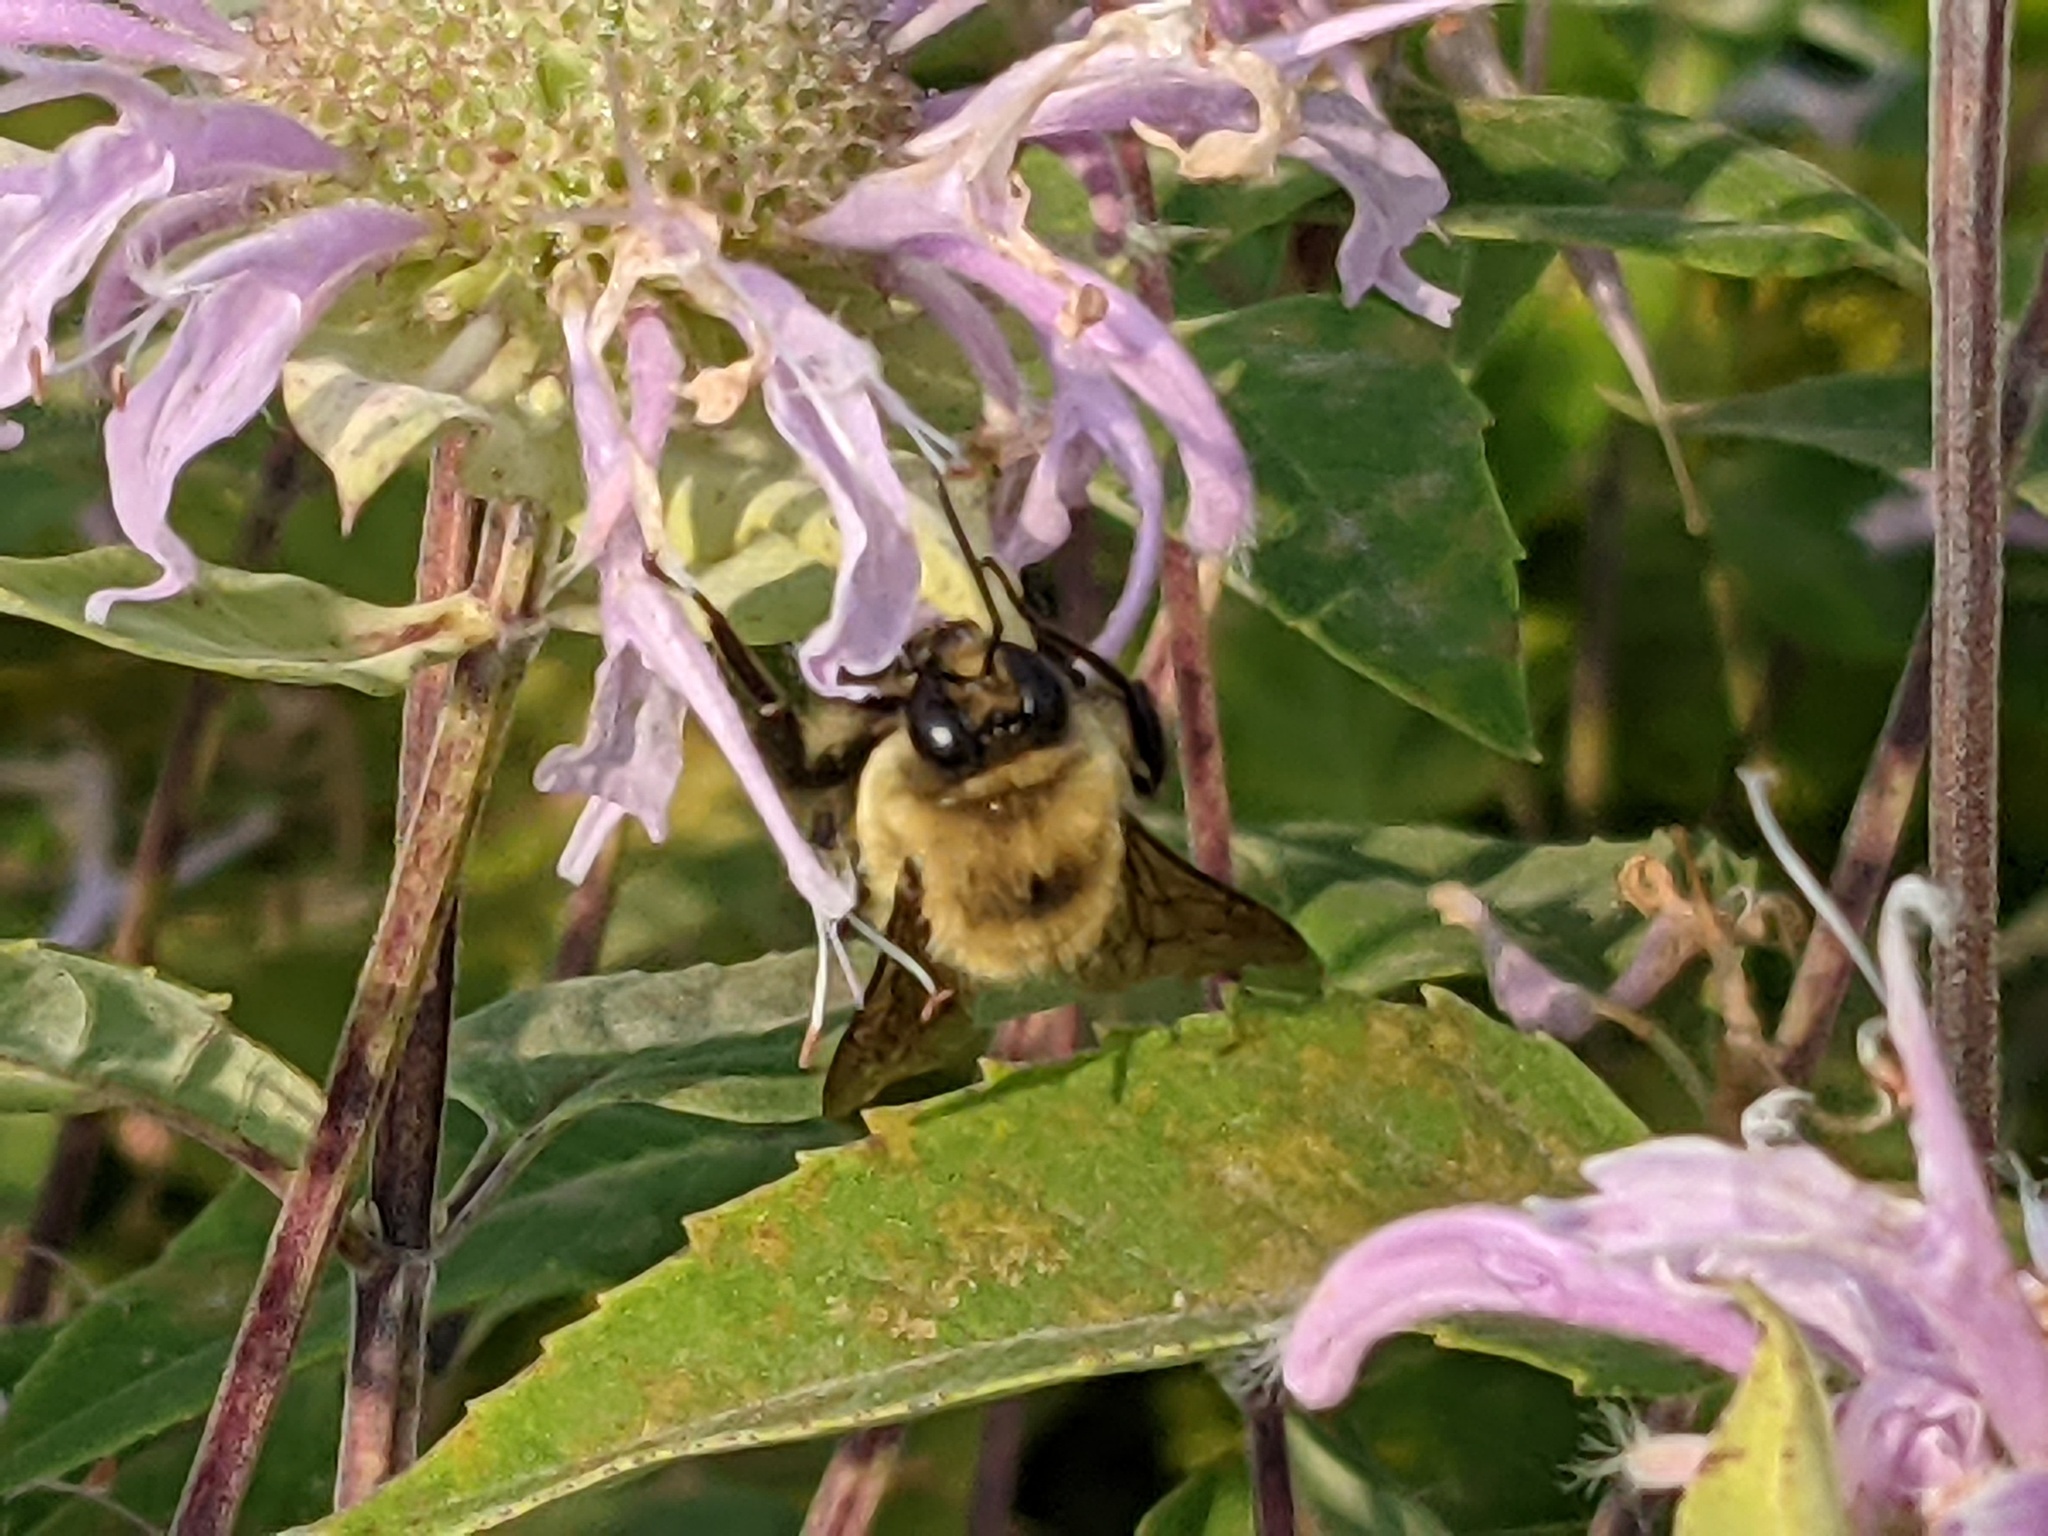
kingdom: Animalia
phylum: Arthropoda
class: Insecta
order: Hymenoptera
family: Apidae
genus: Bombus
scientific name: Bombus griseocollis
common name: Brown-belted bumble bee
